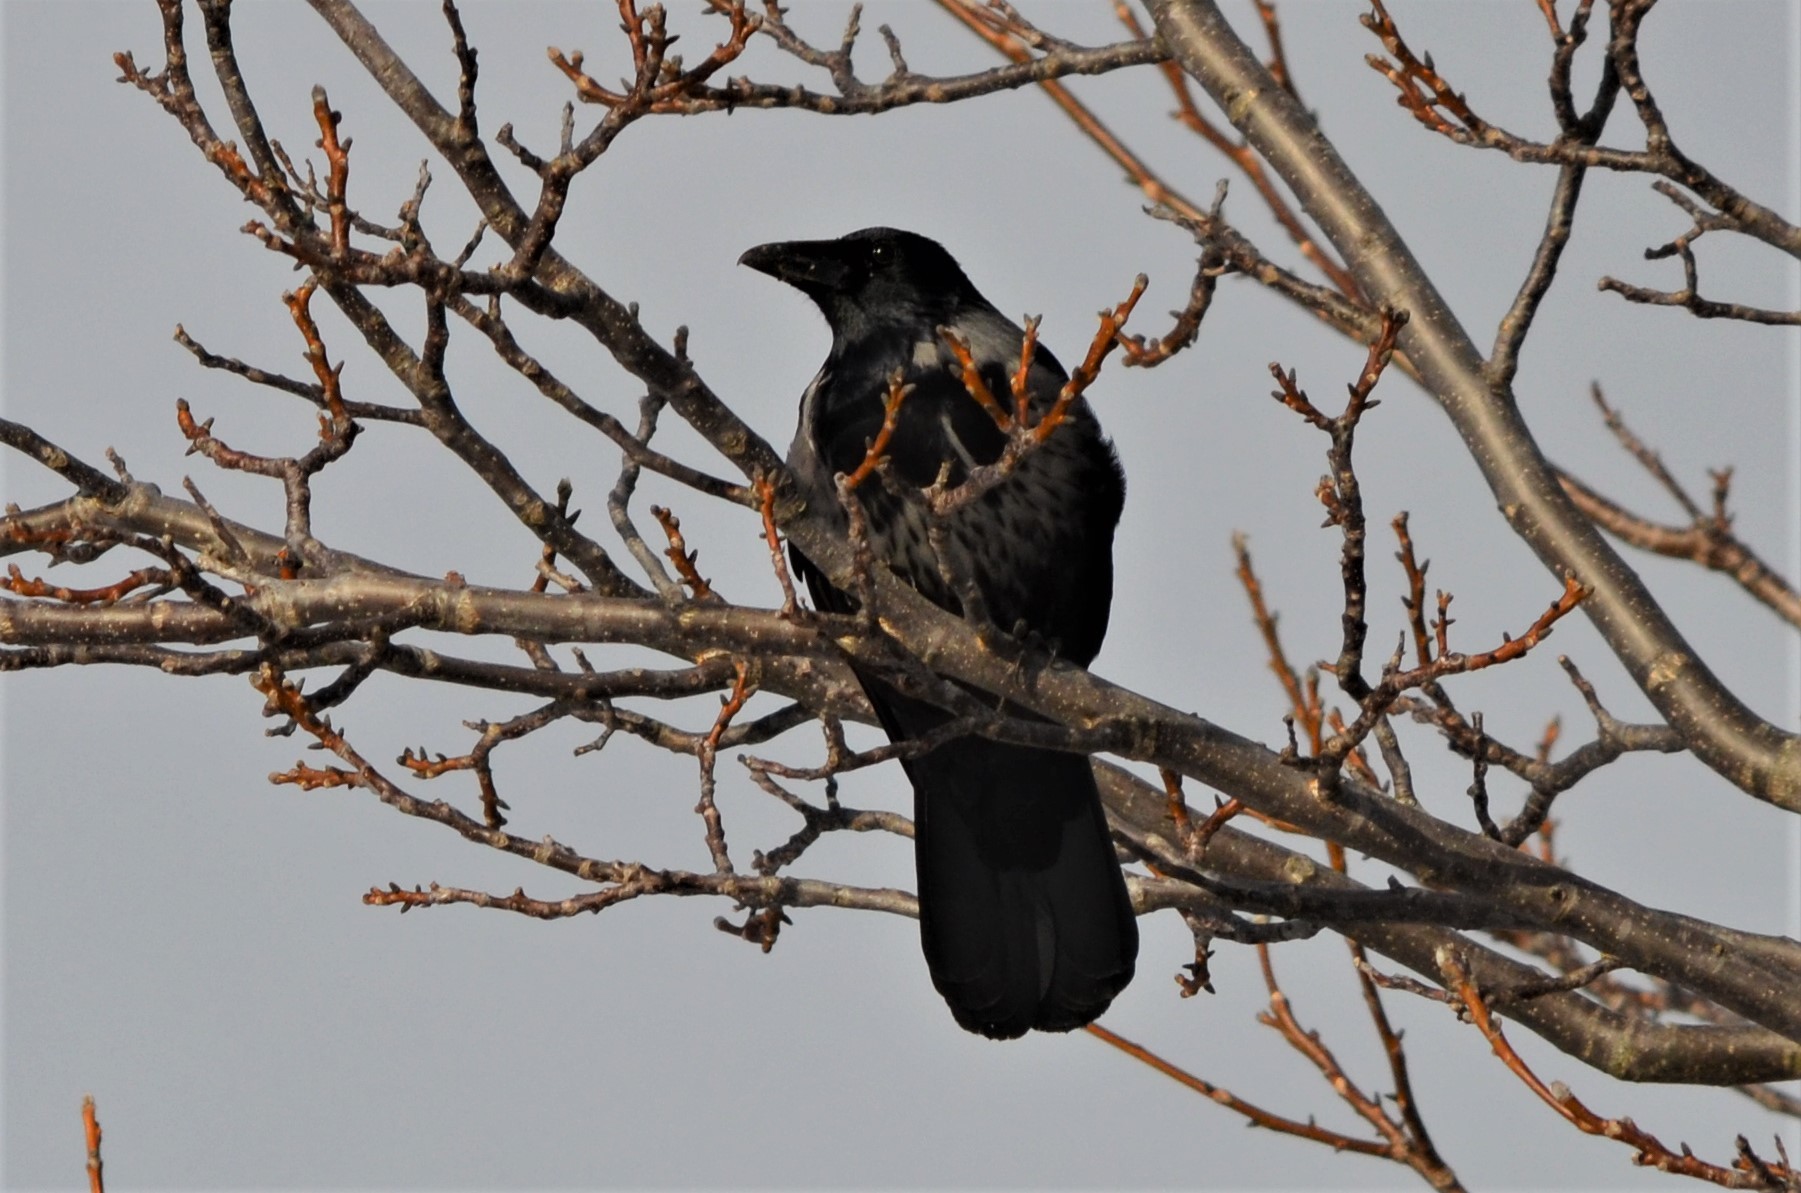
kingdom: Animalia
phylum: Chordata
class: Aves
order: Passeriformes
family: Corvidae
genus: Corvus
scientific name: Corvus
